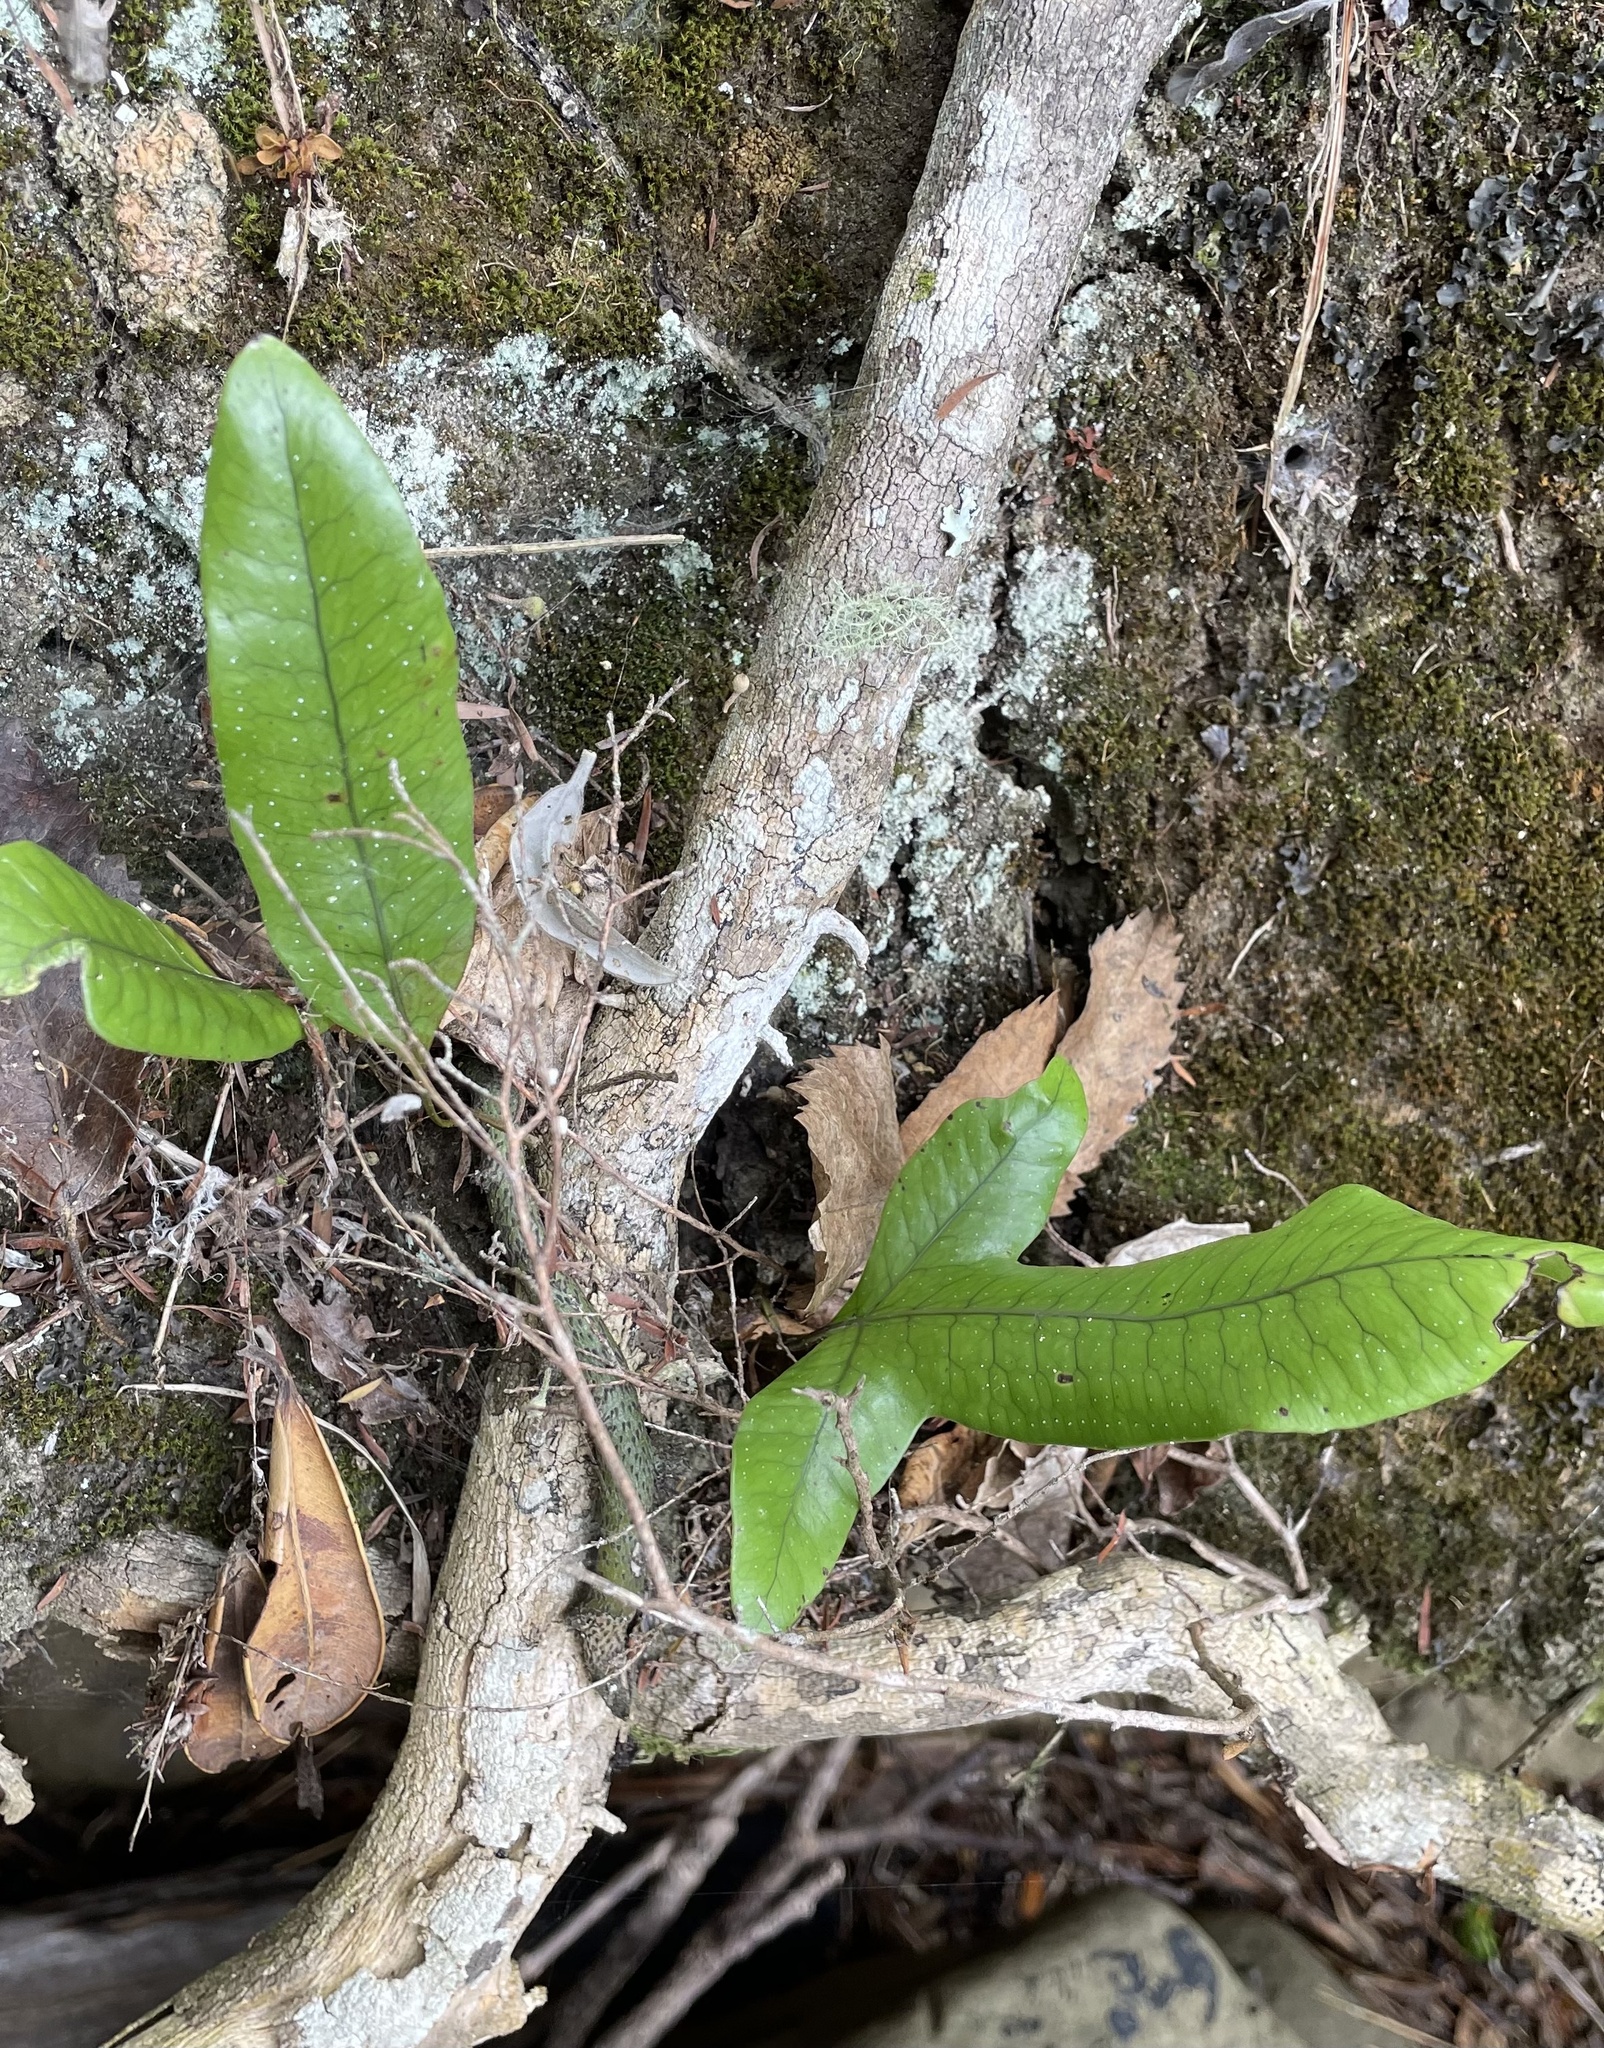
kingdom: Plantae
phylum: Tracheophyta
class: Polypodiopsida
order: Polypodiales
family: Polypodiaceae
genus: Lecanopteris
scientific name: Lecanopteris pustulata
